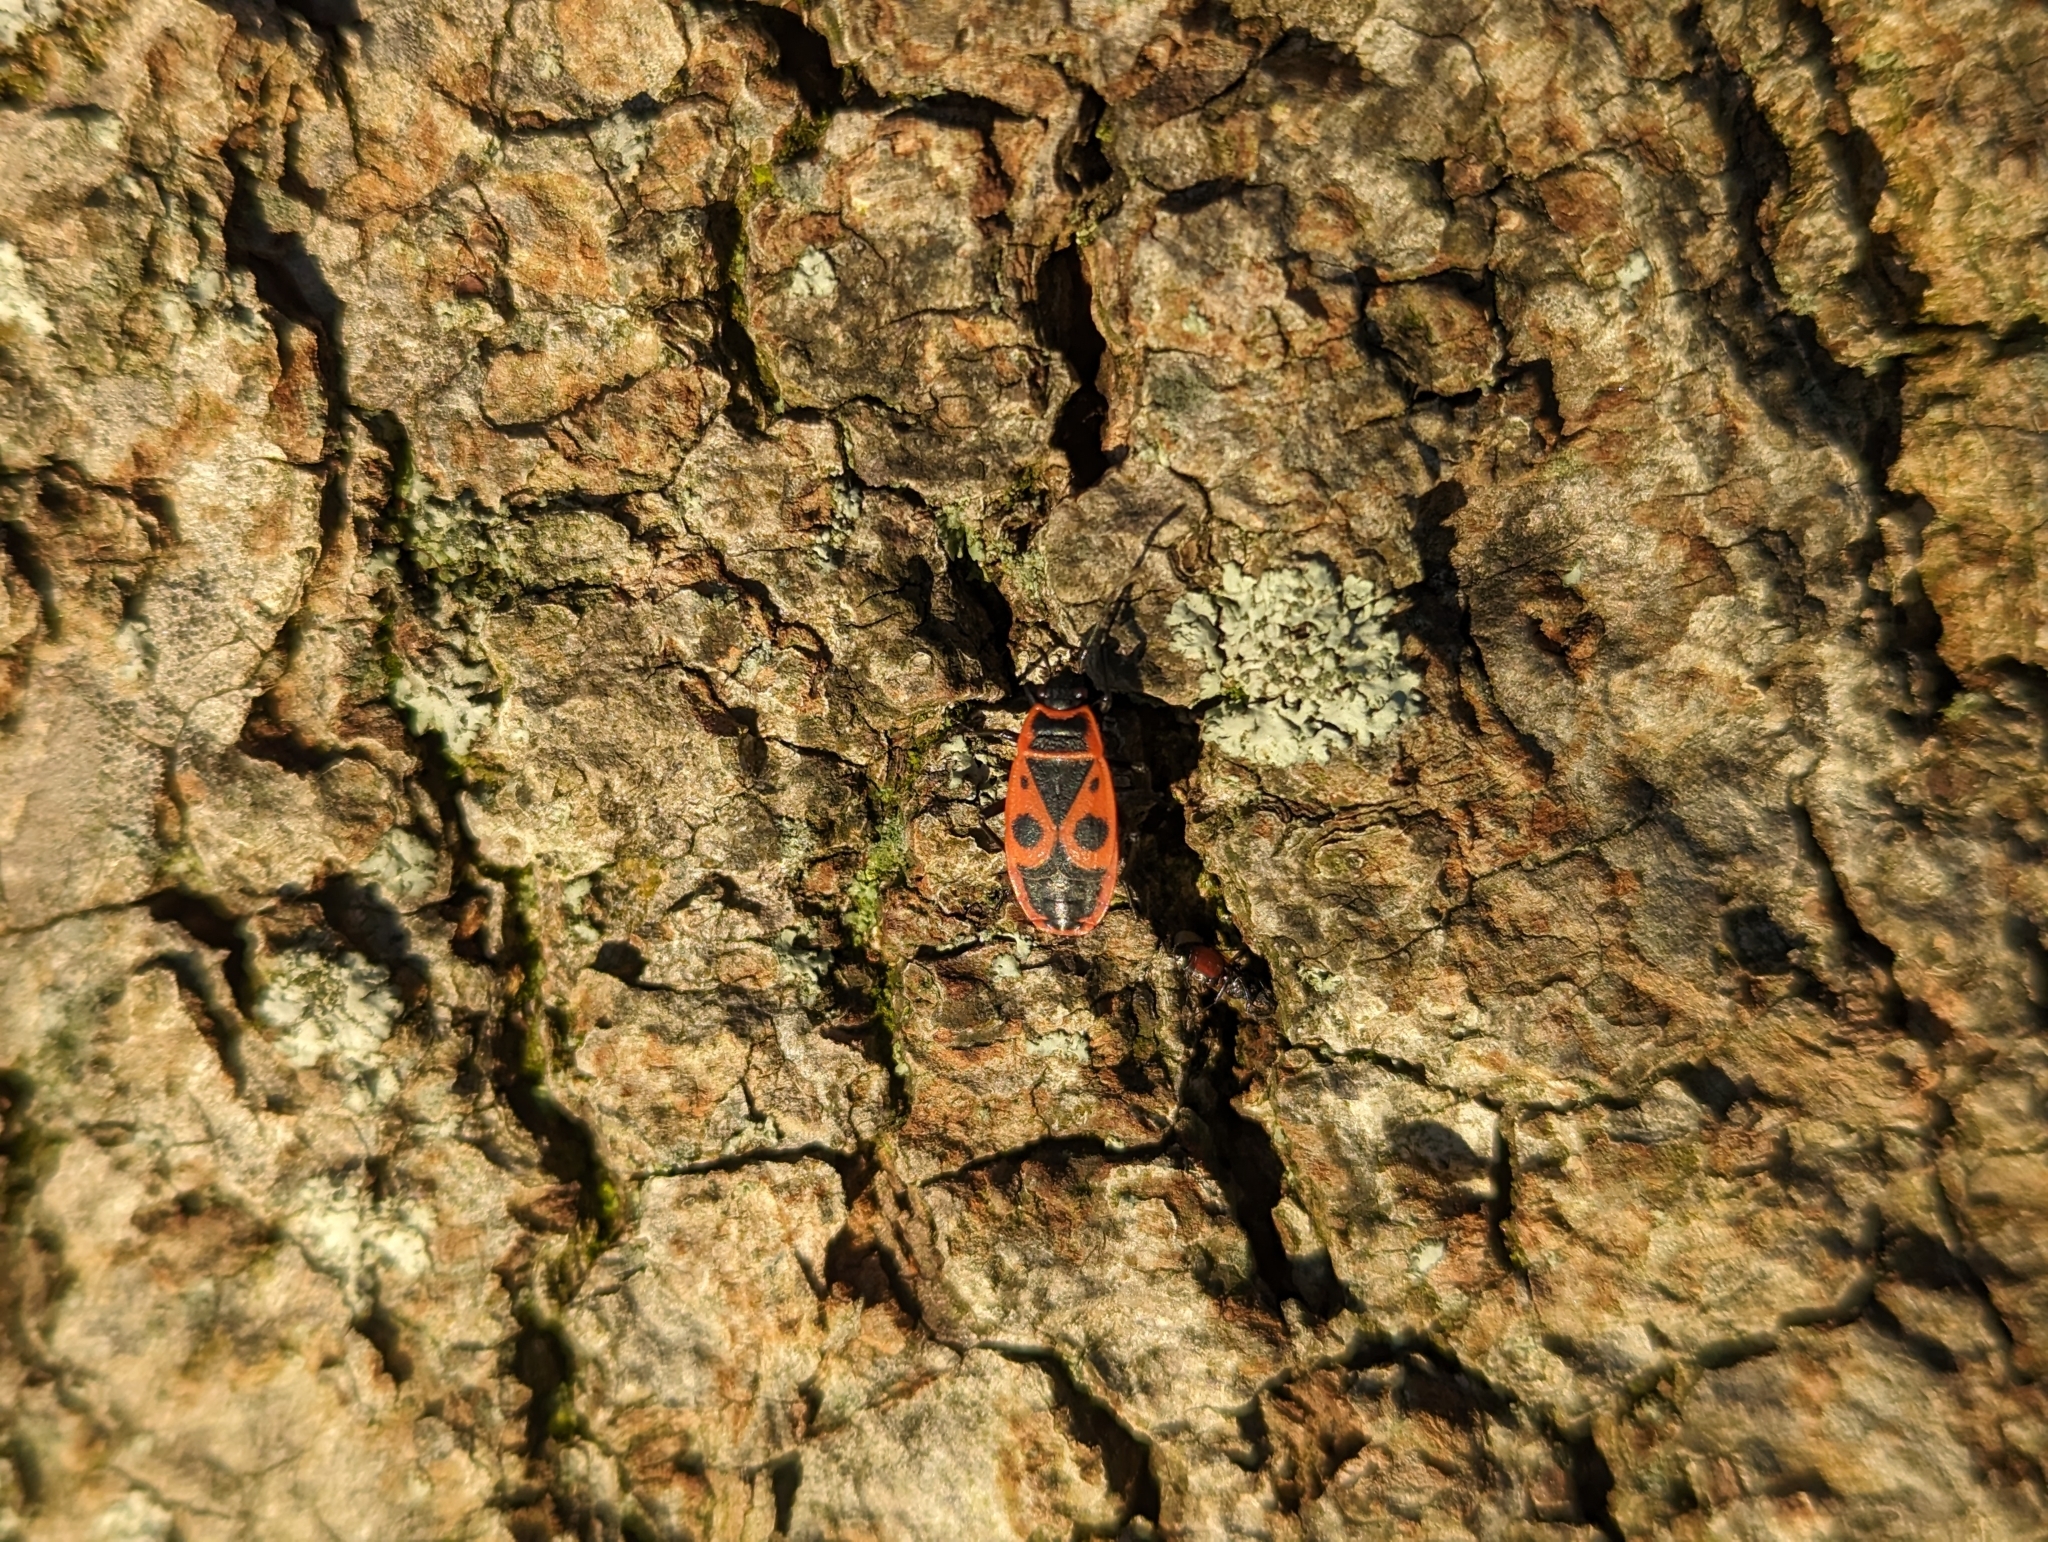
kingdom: Animalia
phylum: Arthropoda
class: Insecta
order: Hemiptera
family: Pyrrhocoridae
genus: Pyrrhocoris
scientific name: Pyrrhocoris apterus
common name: Firebug
